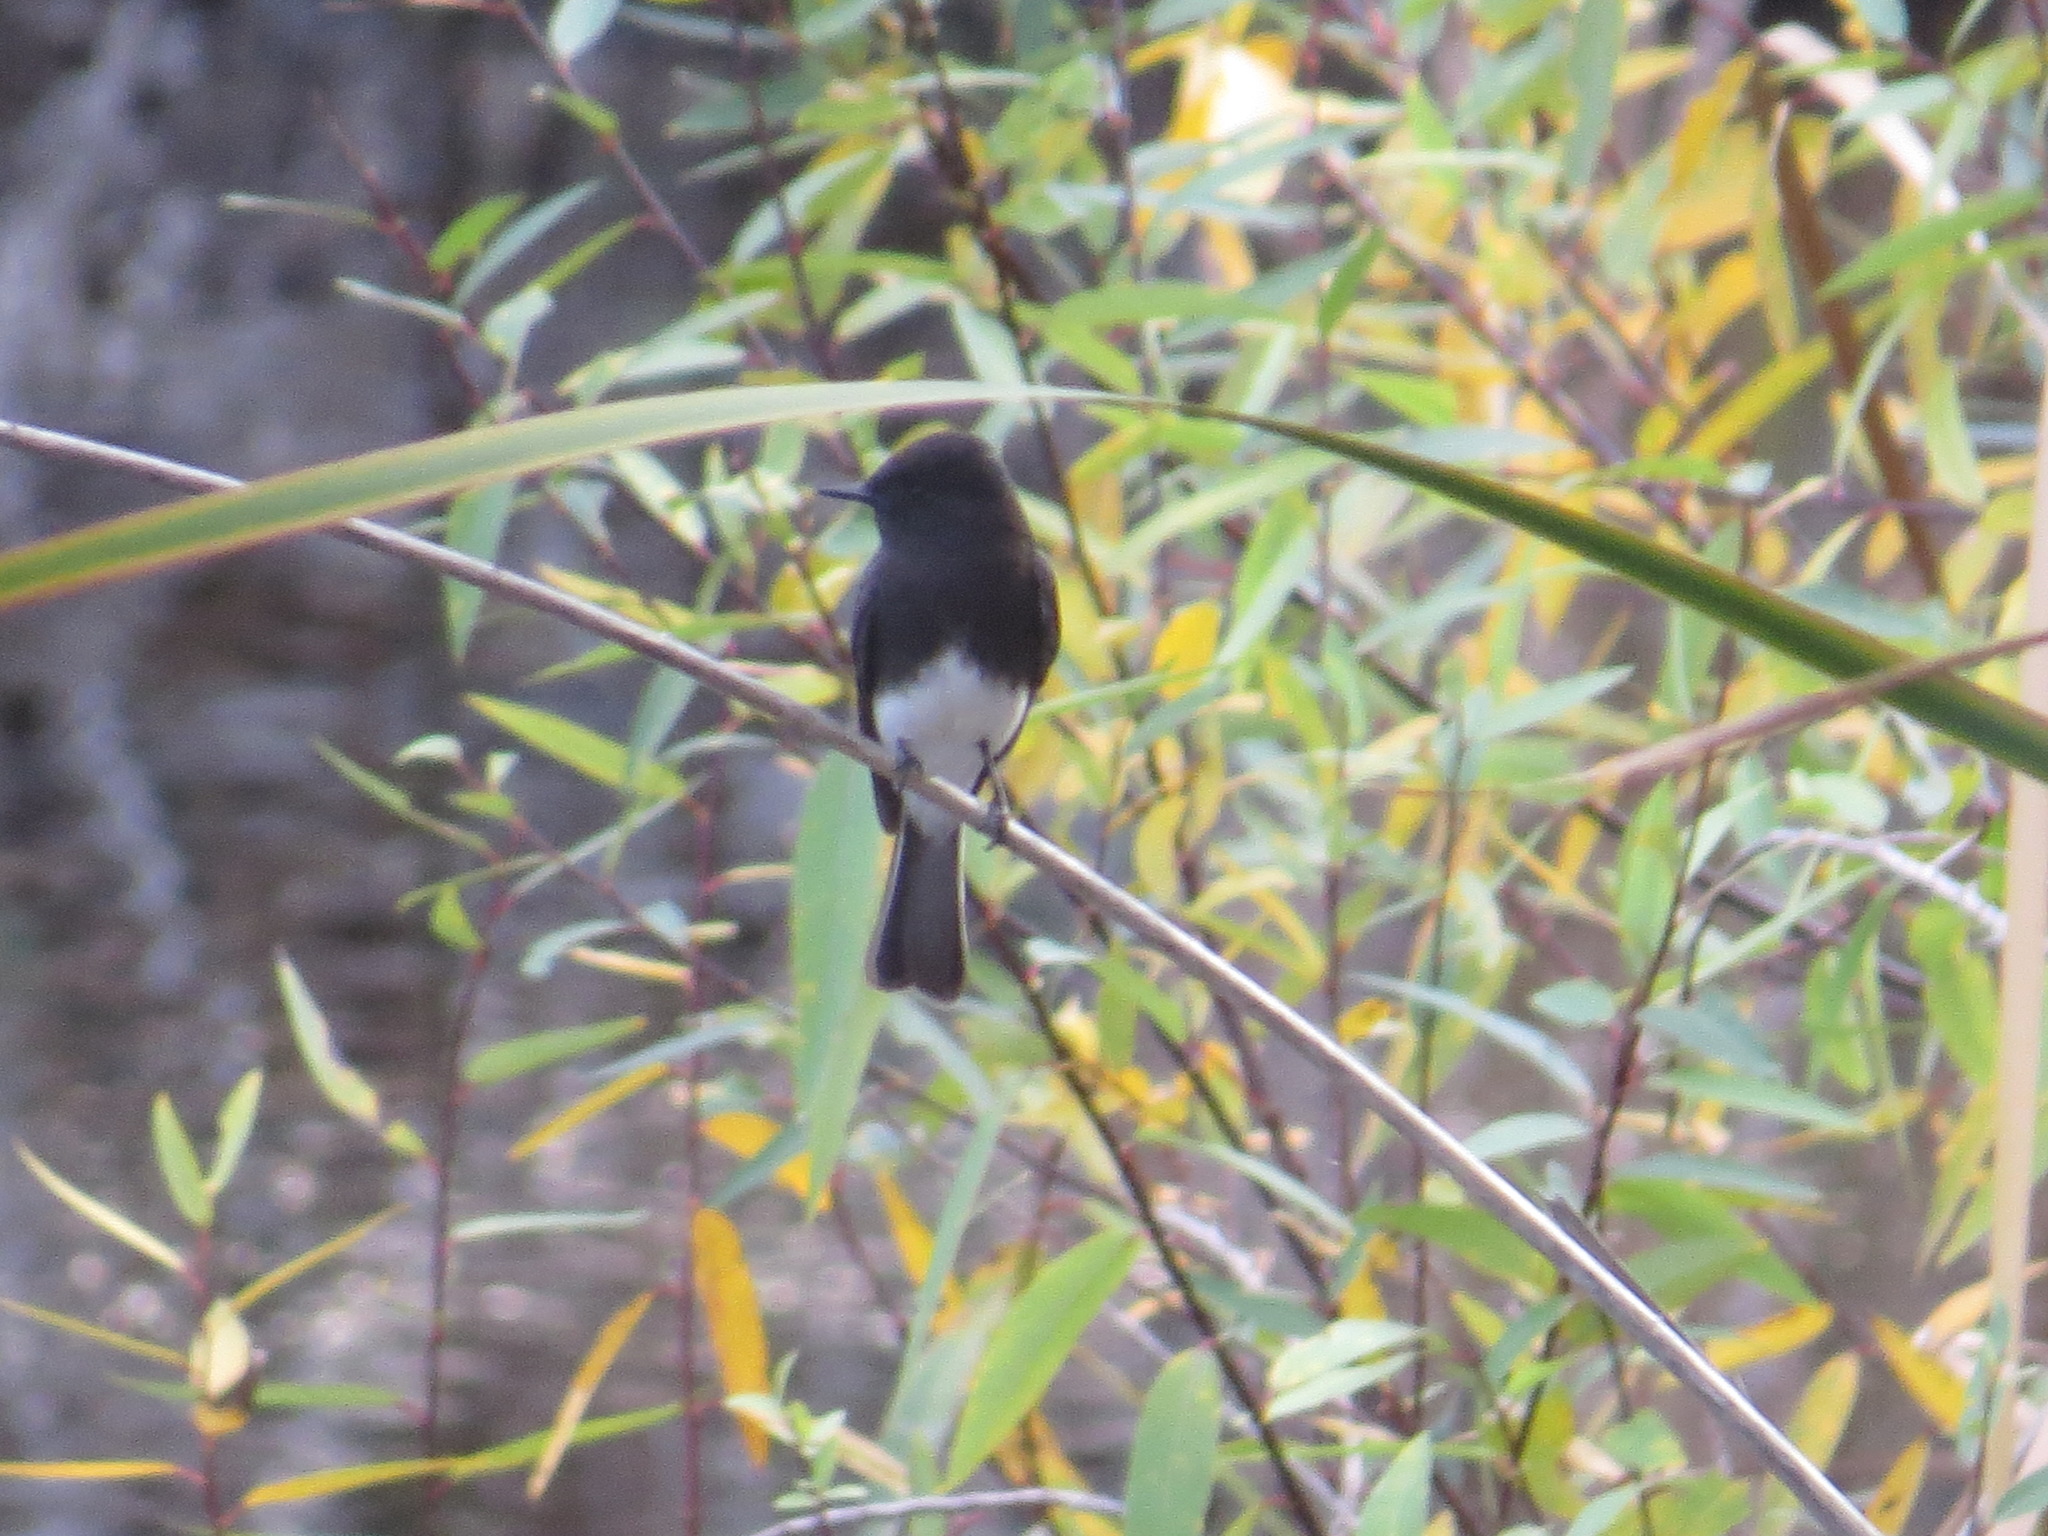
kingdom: Animalia
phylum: Chordata
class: Aves
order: Passeriformes
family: Tyrannidae
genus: Sayornis
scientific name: Sayornis nigricans
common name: Black phoebe
